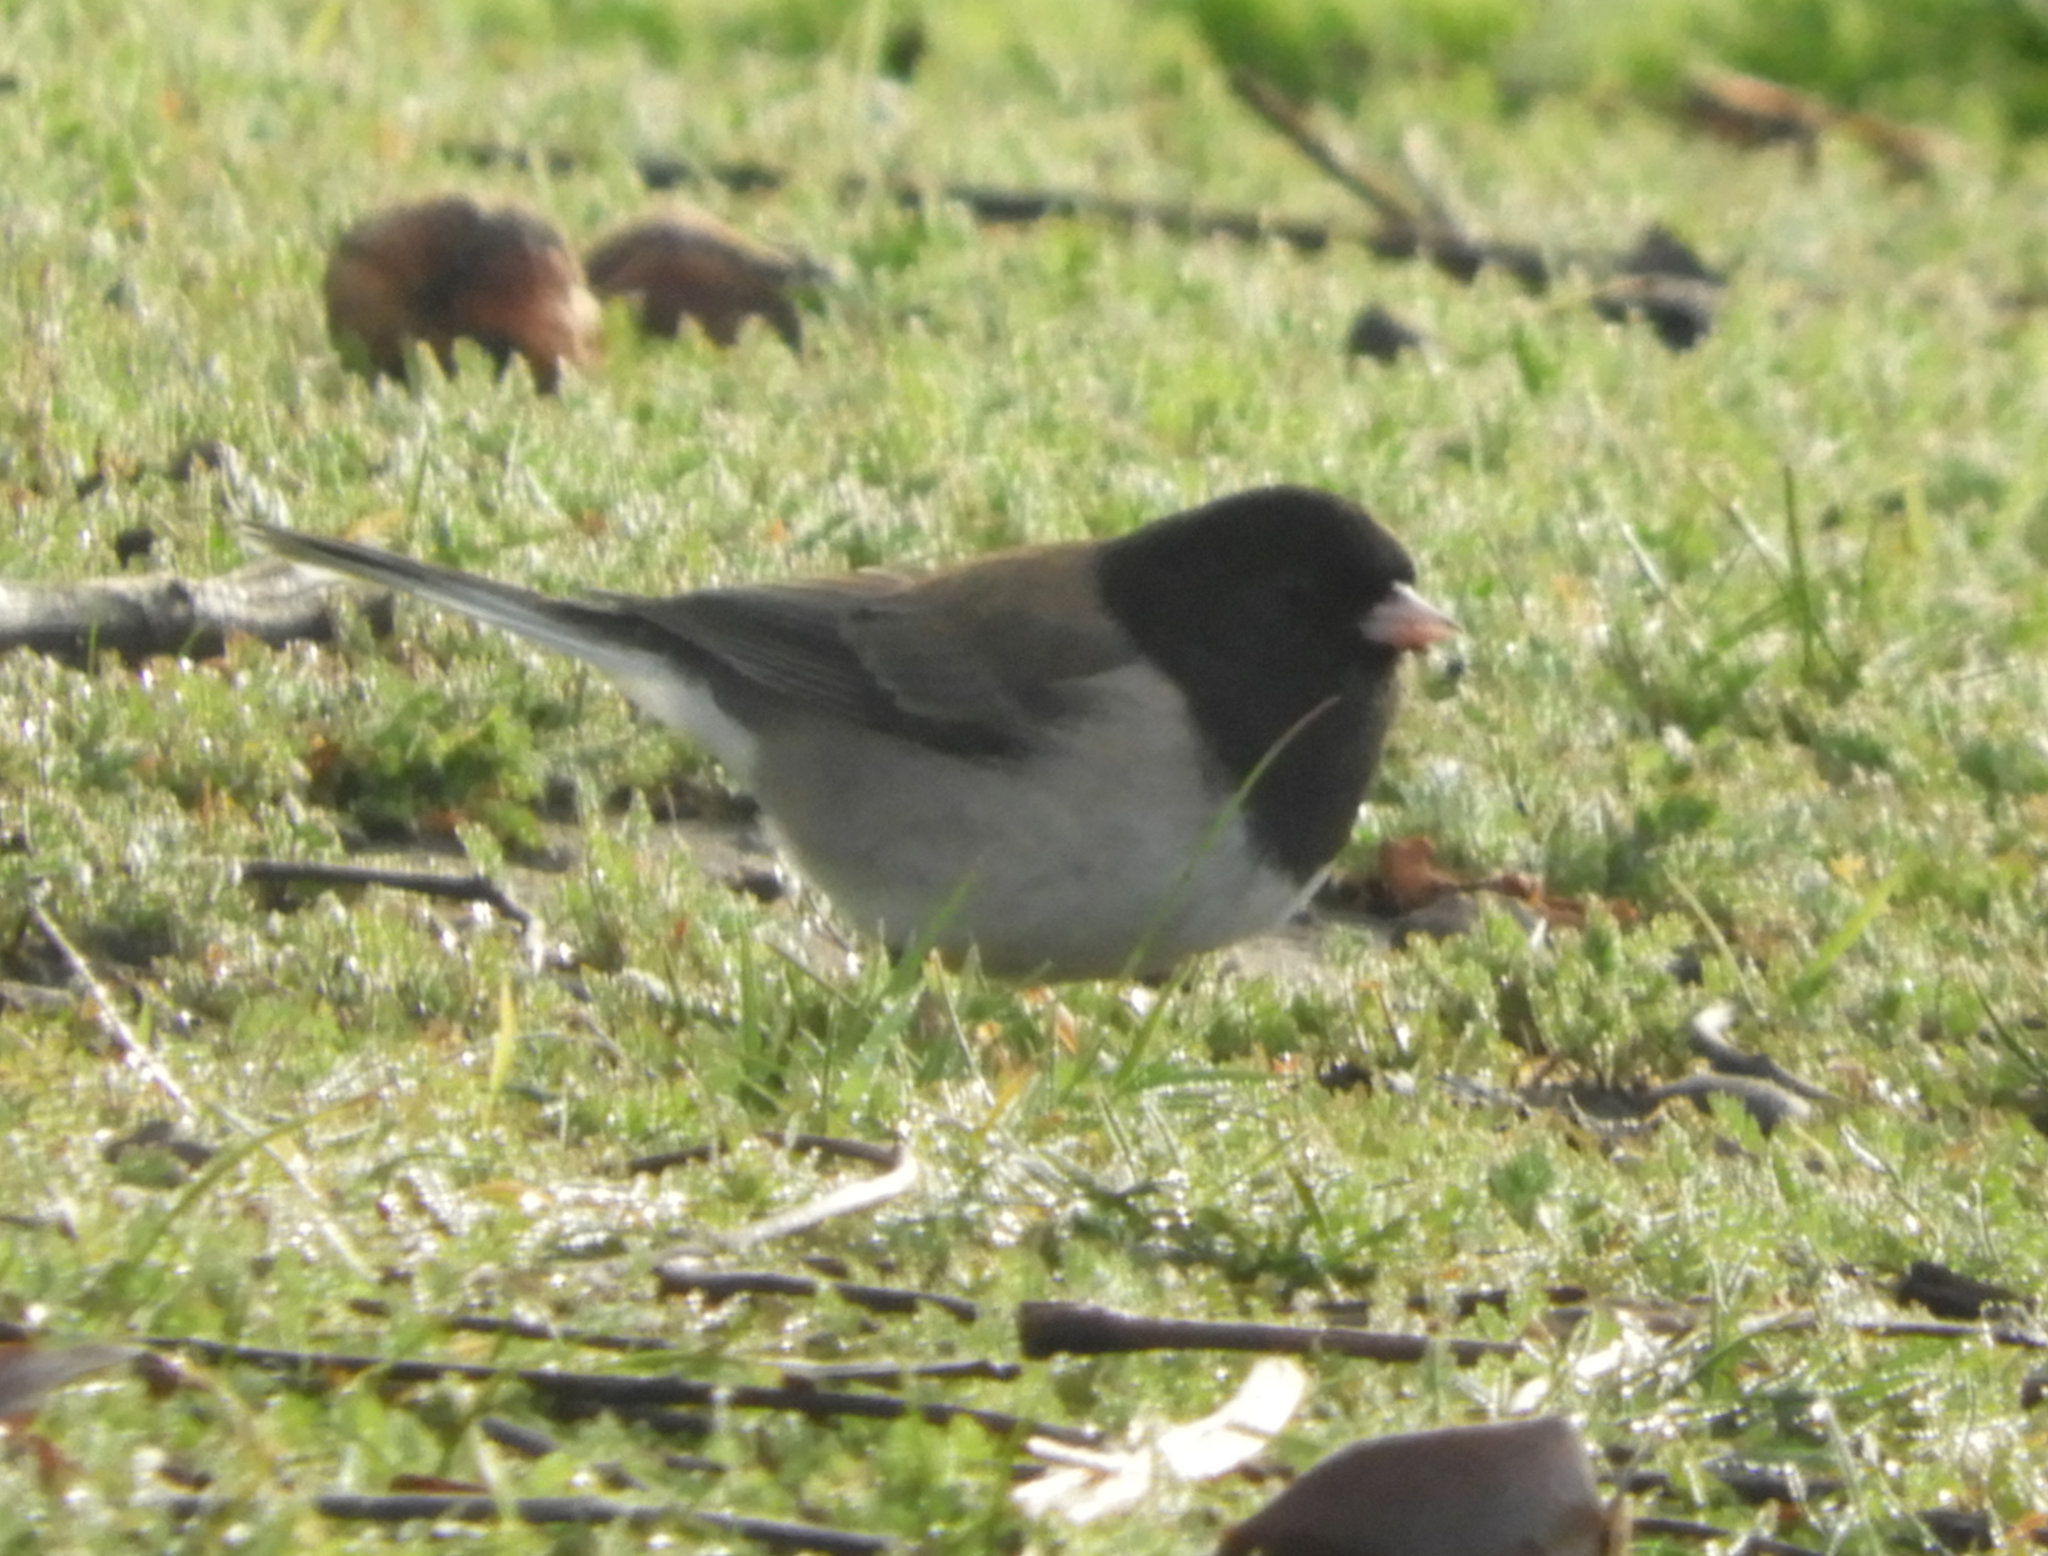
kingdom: Animalia
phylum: Chordata
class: Aves
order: Passeriformes
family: Passerellidae
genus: Junco
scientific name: Junco hyemalis
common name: Dark-eyed junco
